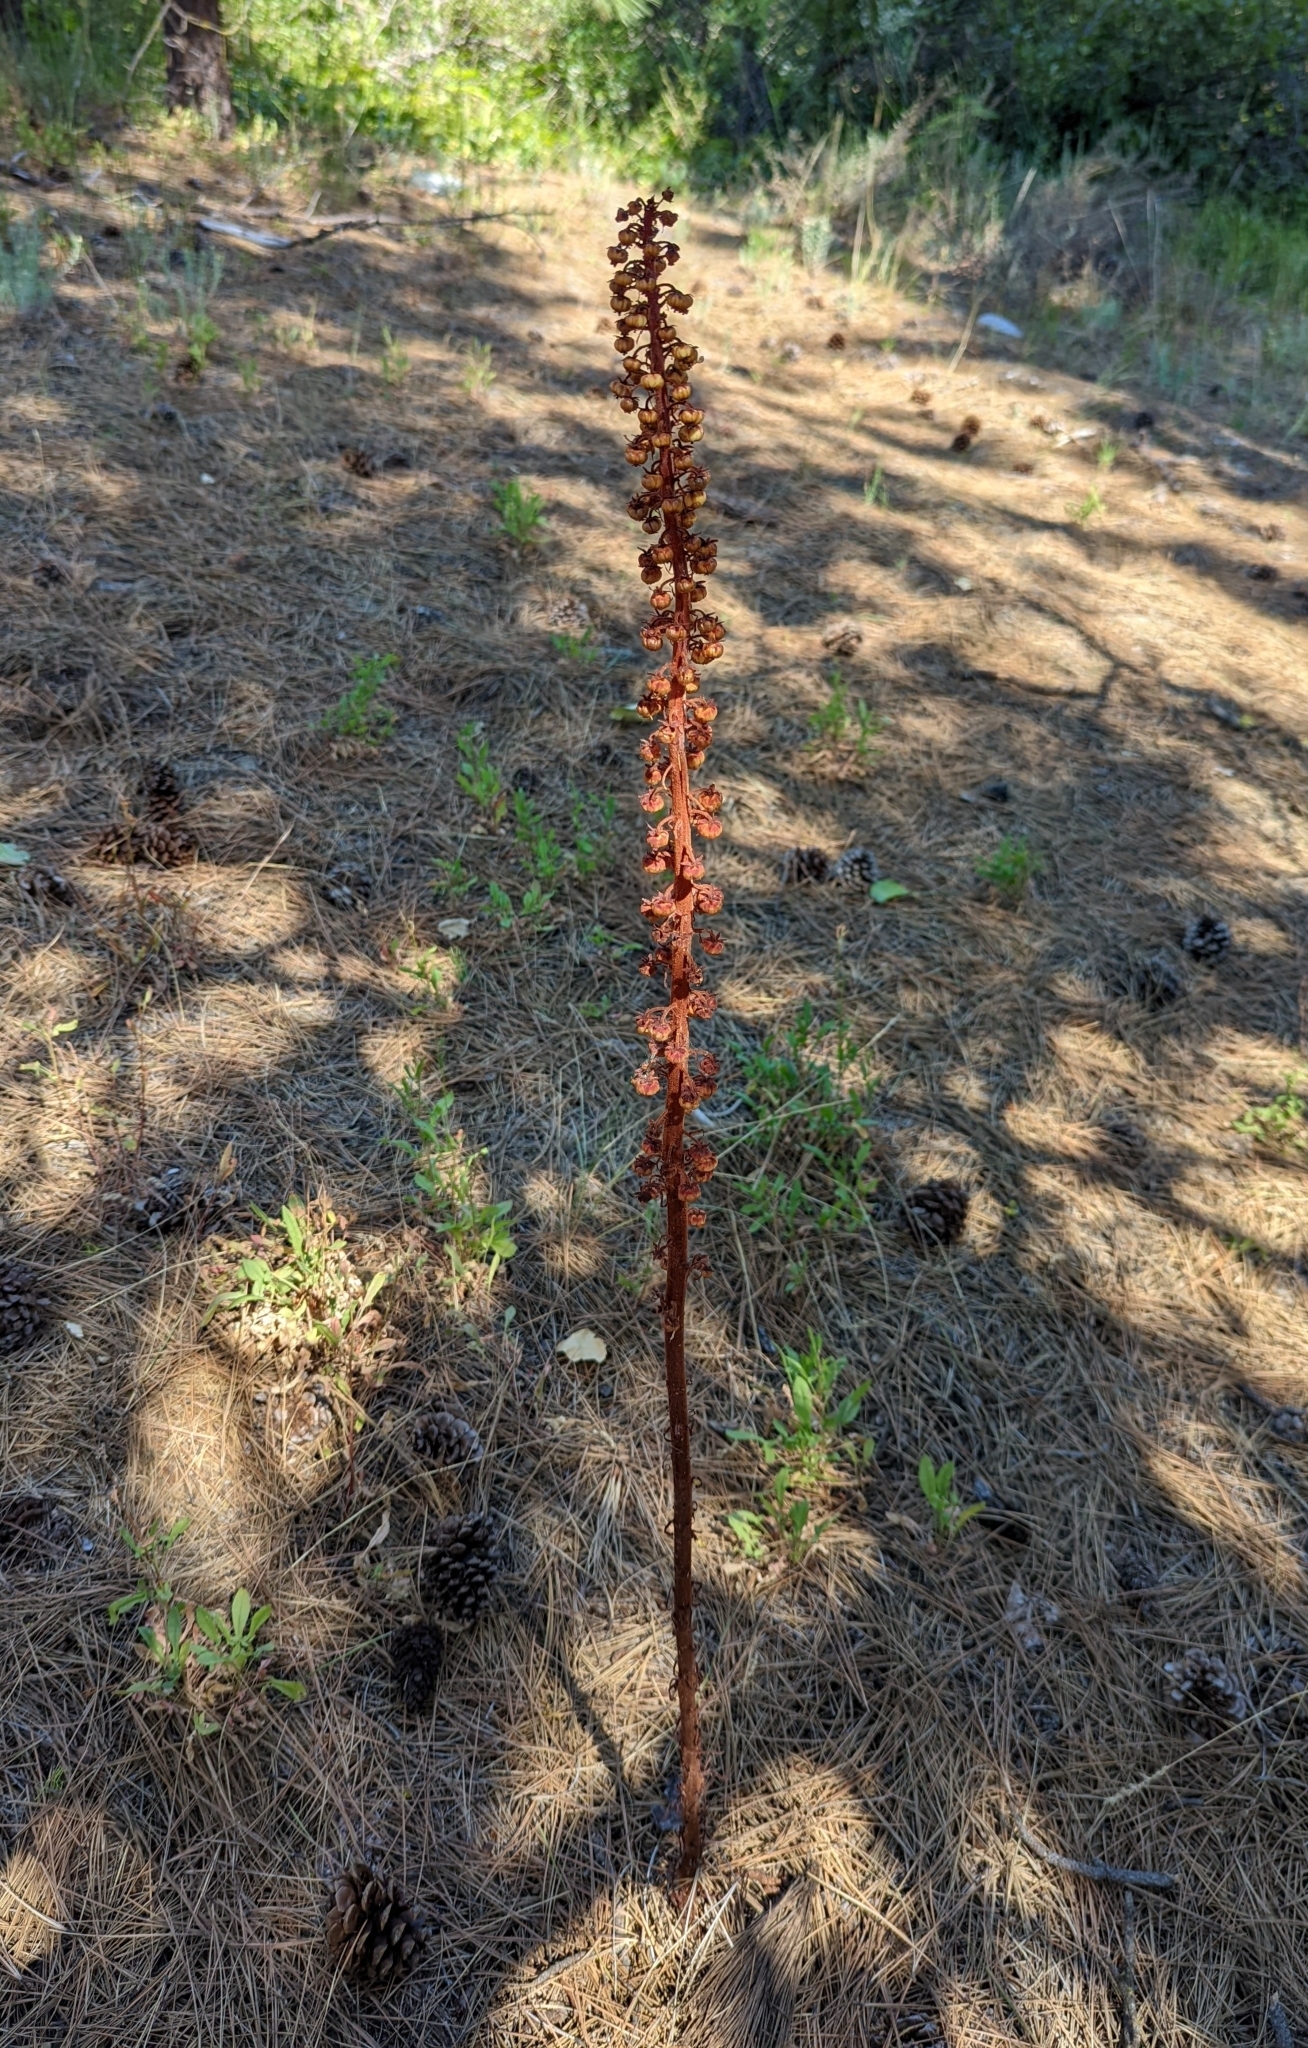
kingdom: Plantae
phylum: Tracheophyta
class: Magnoliopsida
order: Ericales
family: Ericaceae
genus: Pterospora
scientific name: Pterospora andromedea
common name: Giant bird's-nest
